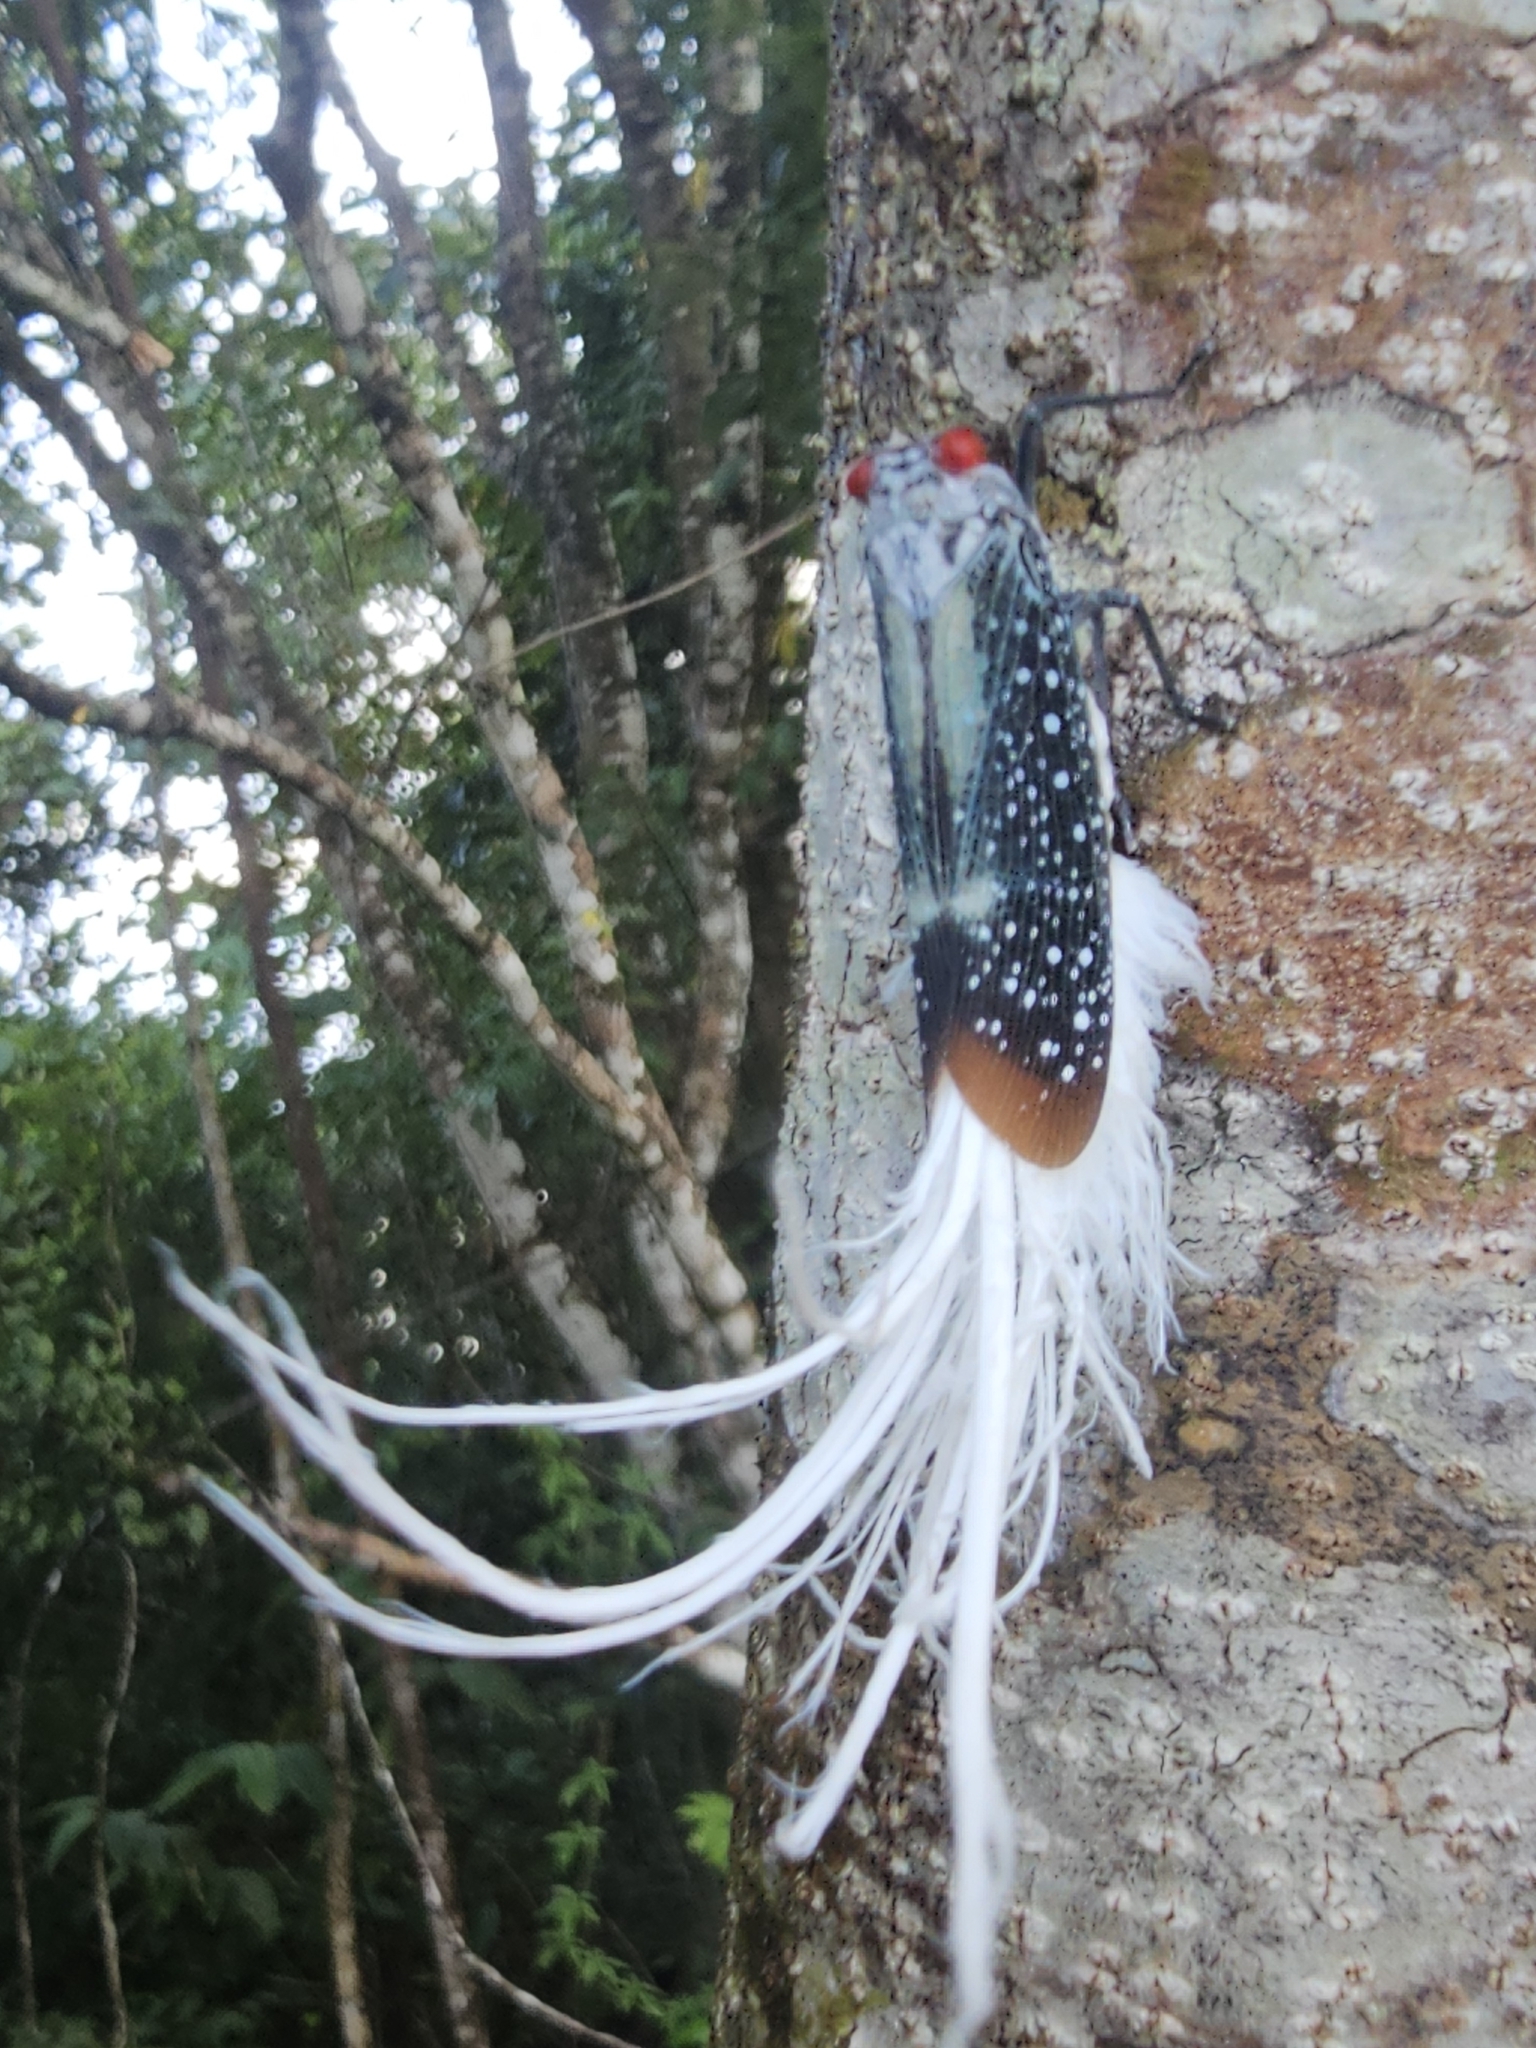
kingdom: Animalia
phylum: Arthropoda
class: Insecta
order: Hemiptera
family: Fulgoridae
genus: Lystra
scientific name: Lystra lanata
